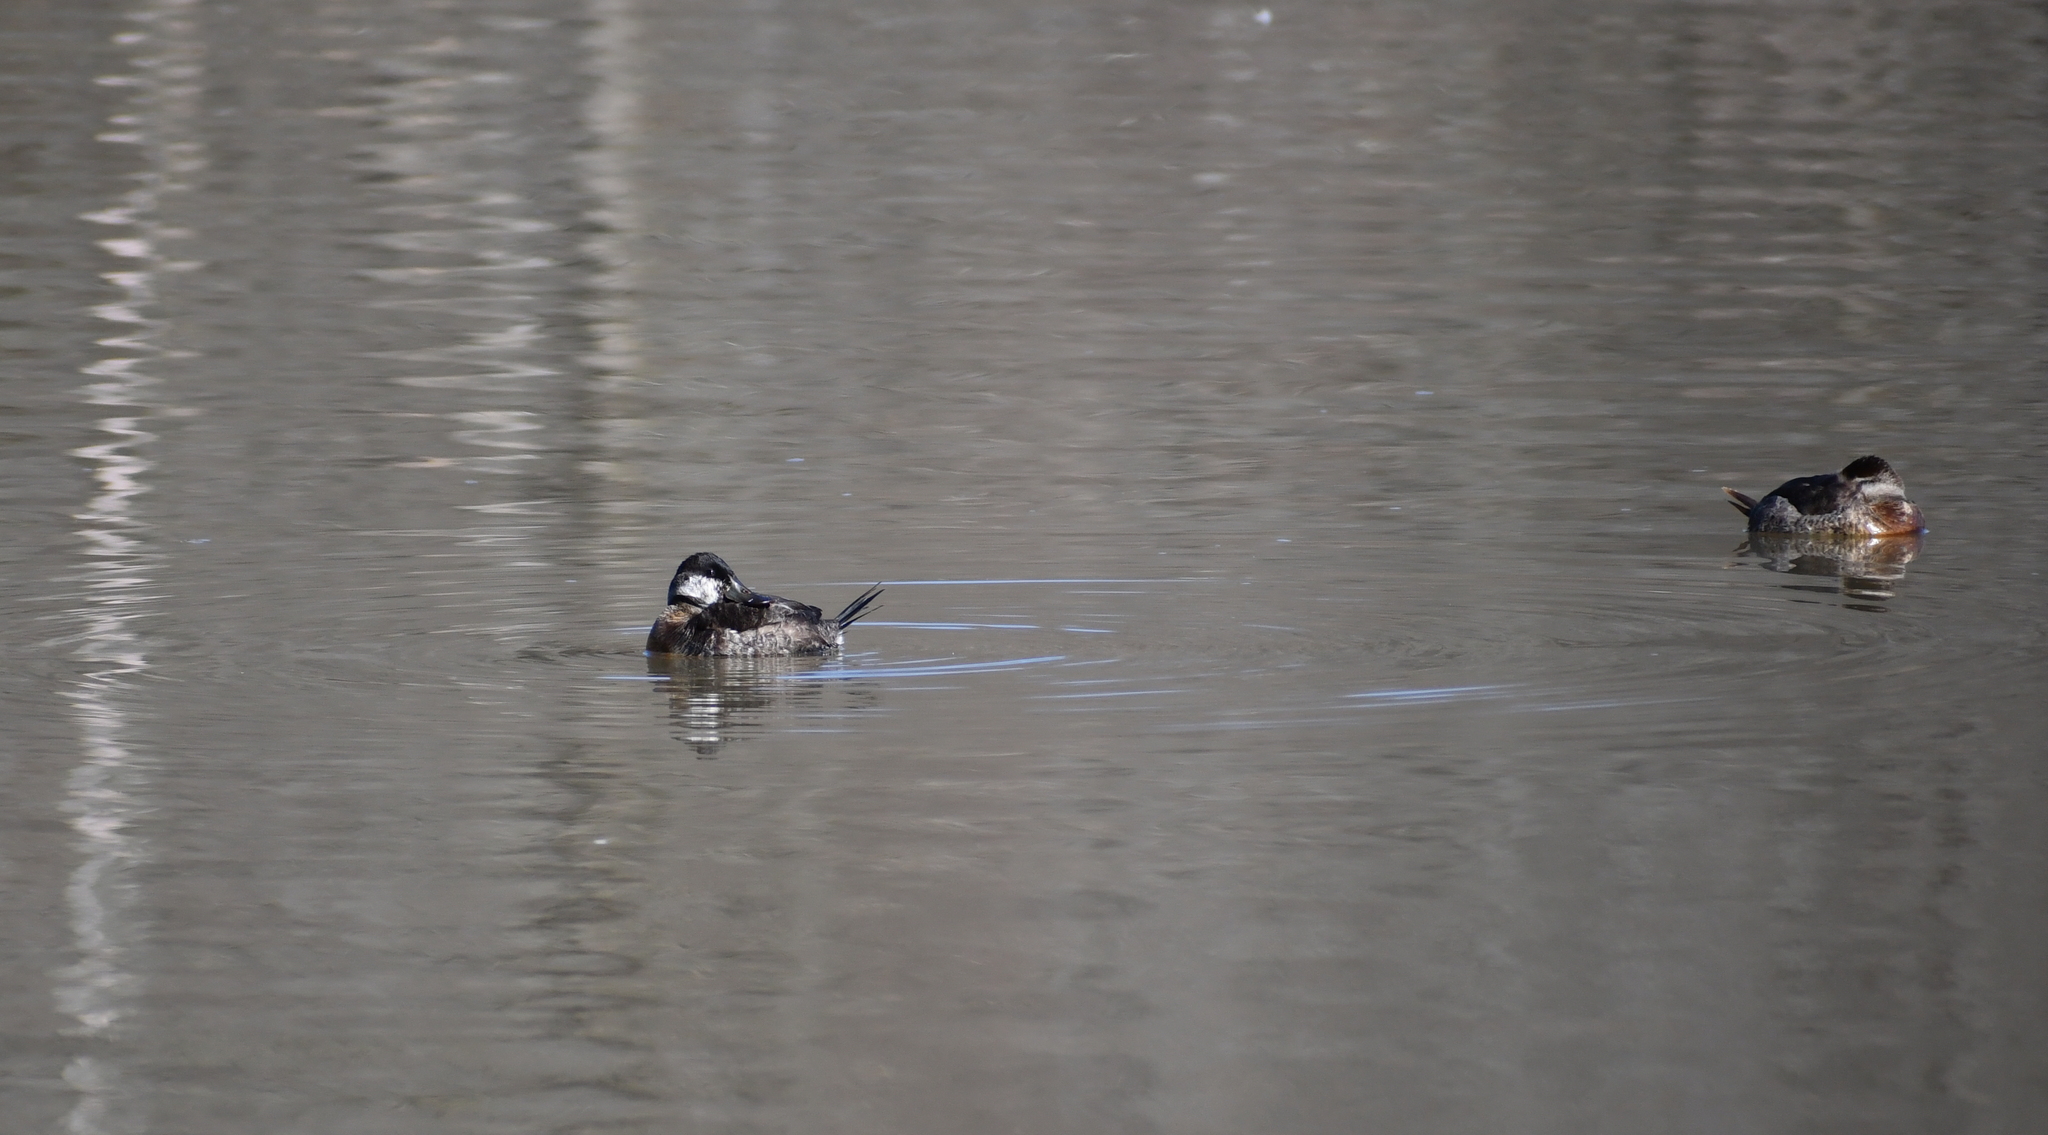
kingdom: Animalia
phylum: Chordata
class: Aves
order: Anseriformes
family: Anatidae
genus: Oxyura
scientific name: Oxyura jamaicensis
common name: Ruddy duck
